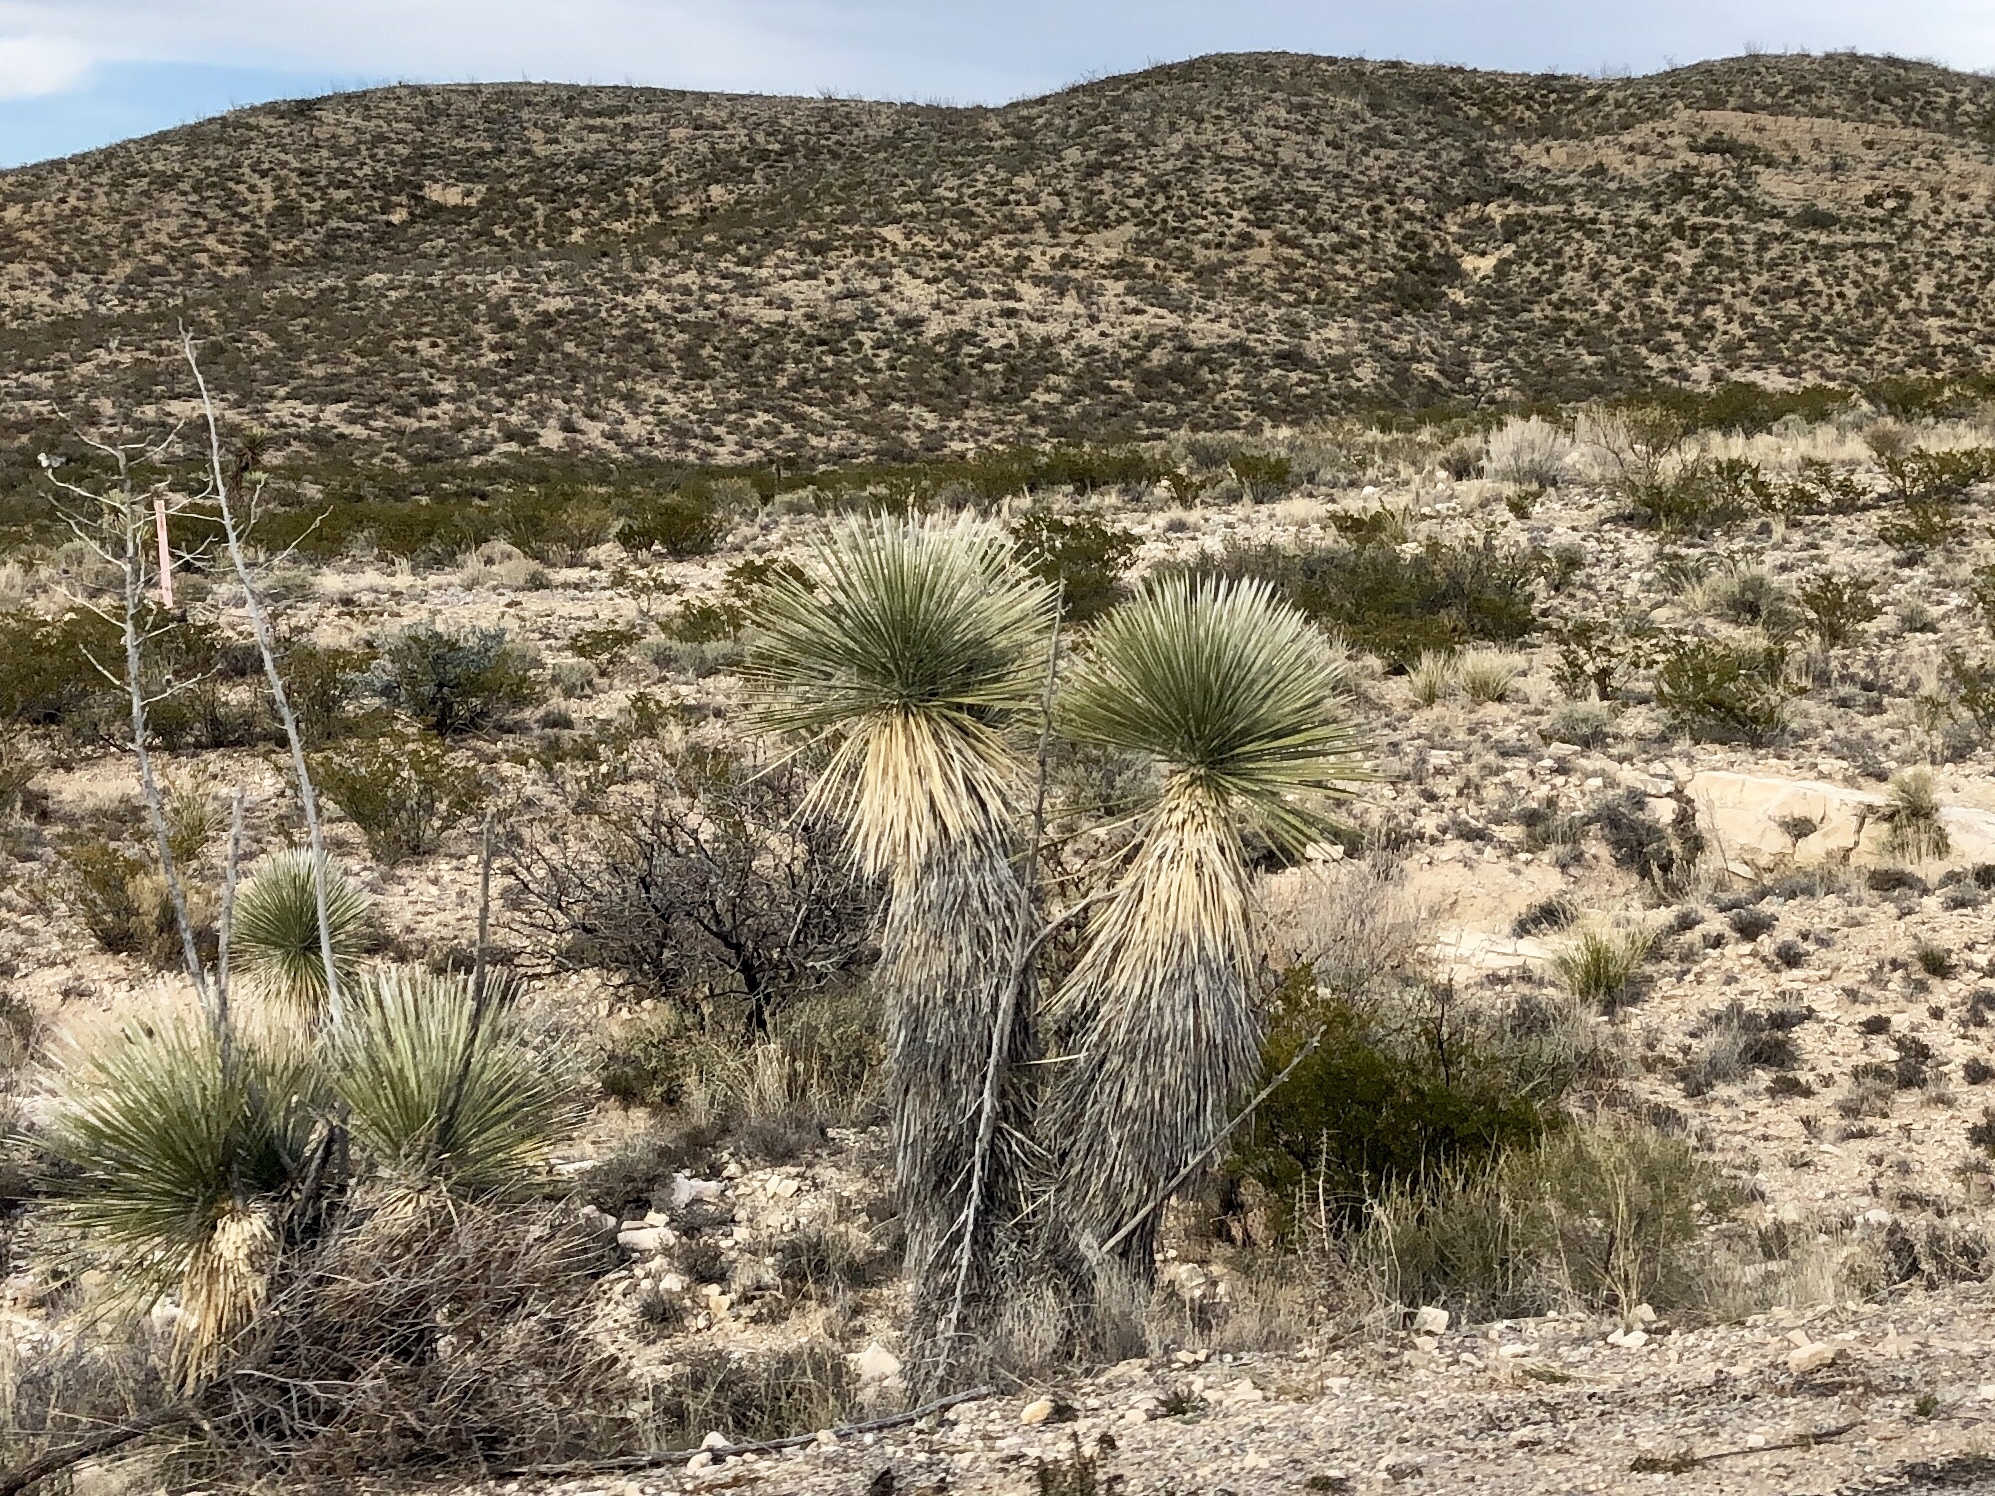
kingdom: Plantae
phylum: Tracheophyta
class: Liliopsida
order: Asparagales
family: Asparagaceae
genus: Yucca
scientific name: Yucca elata
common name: Palmella
